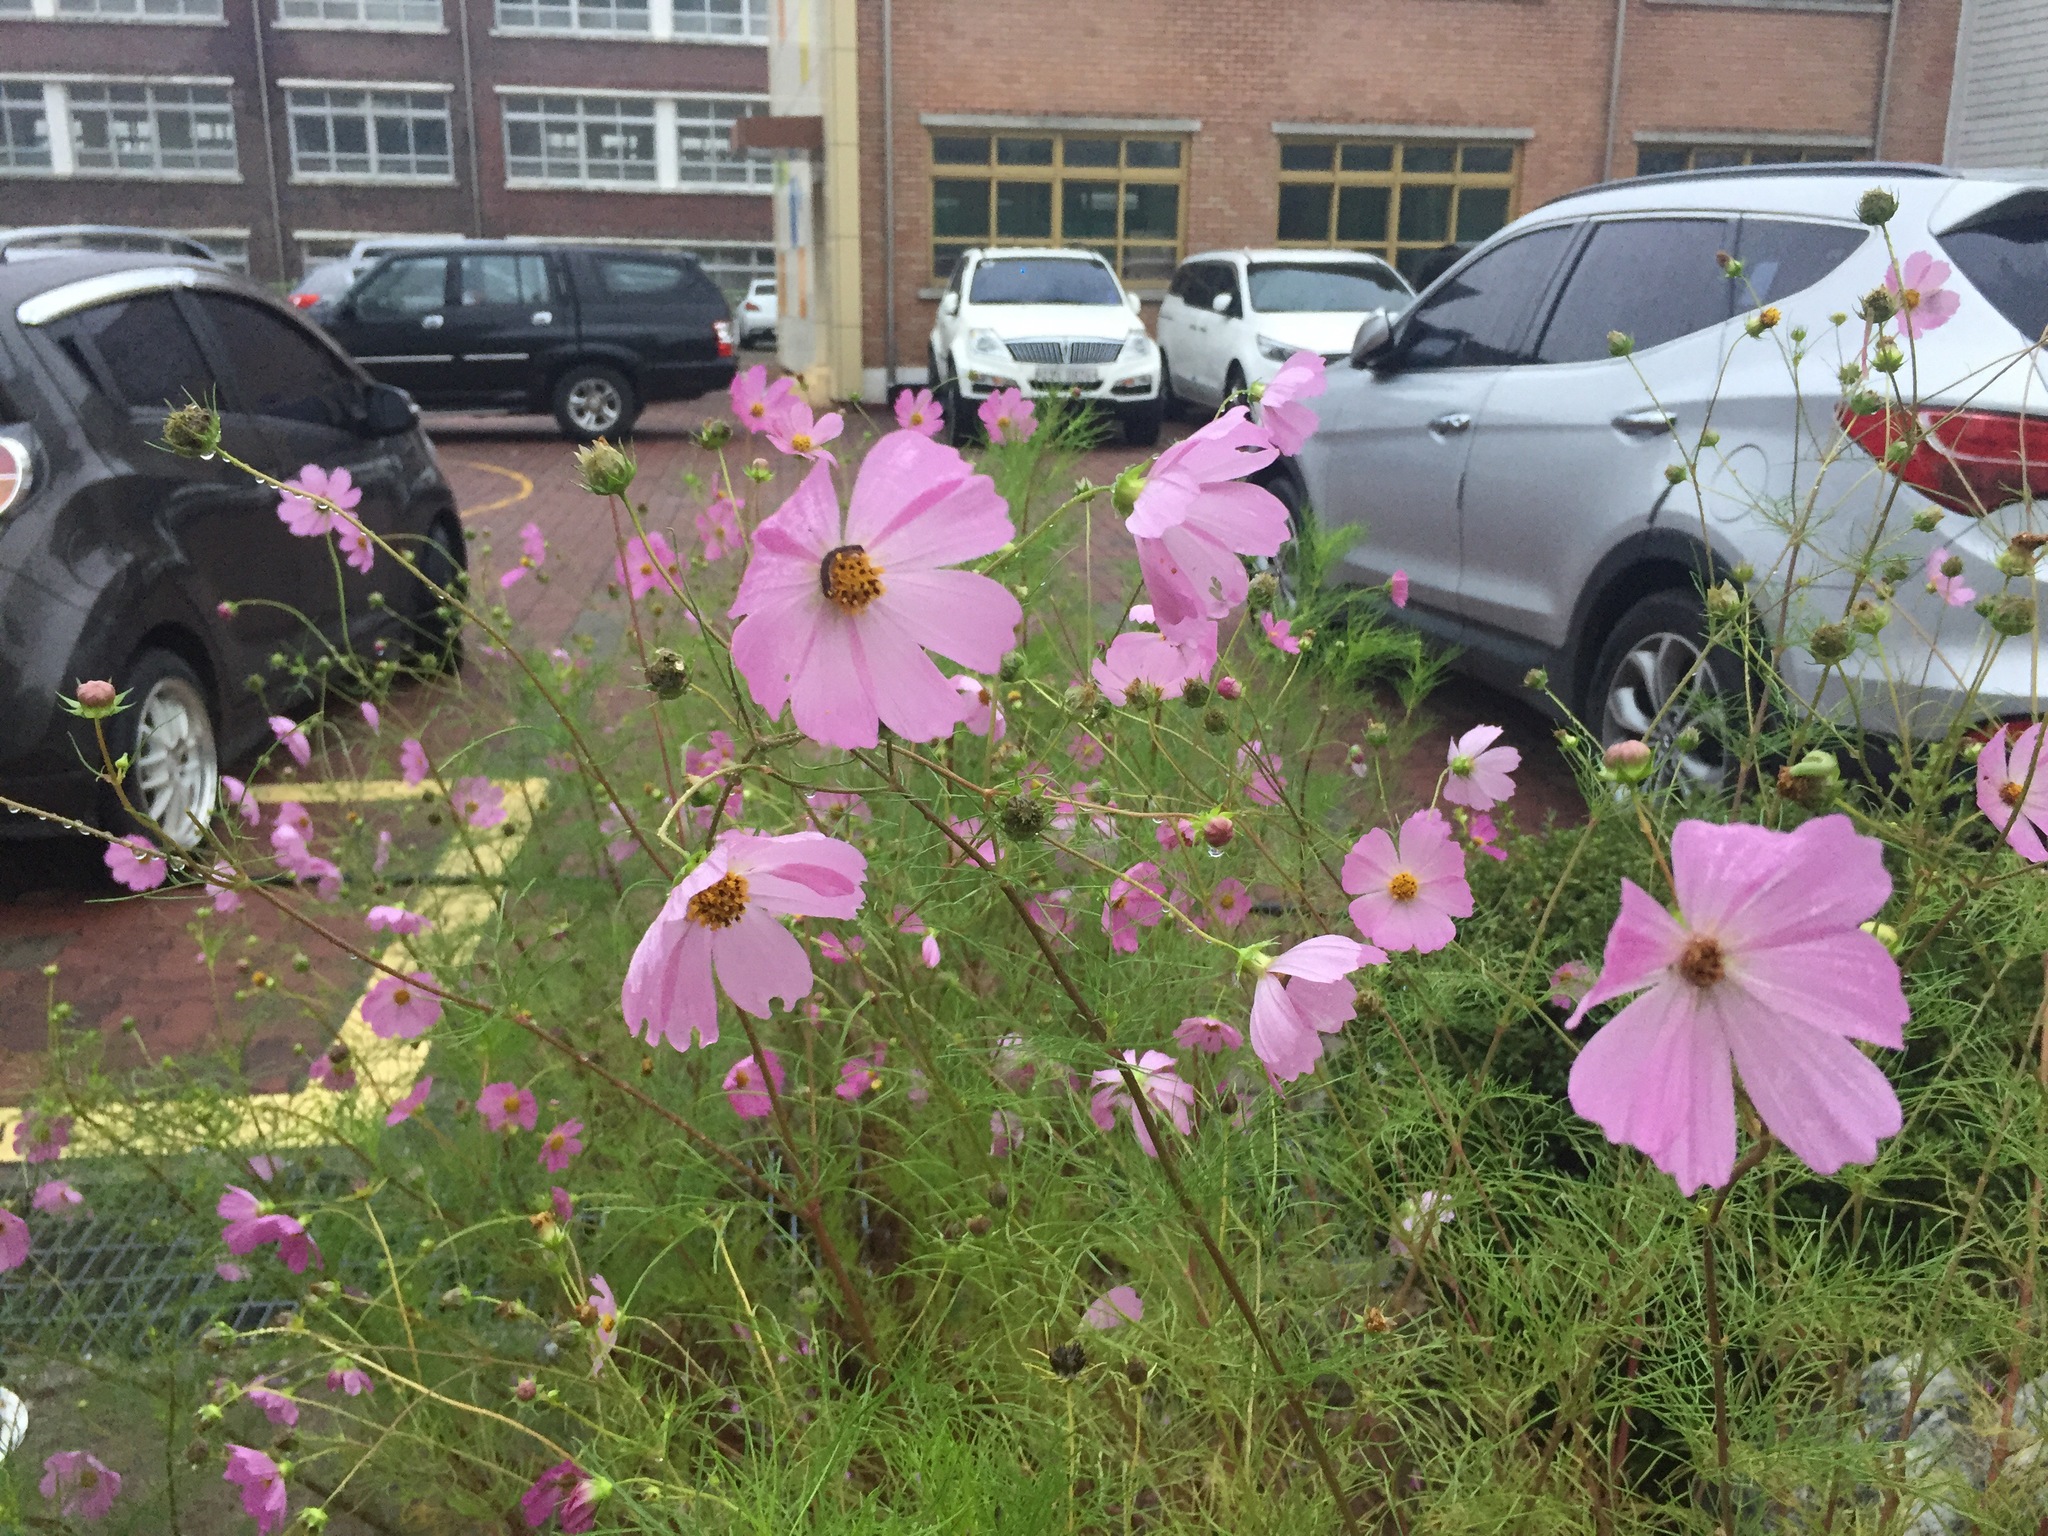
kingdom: Plantae
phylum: Tracheophyta
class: Magnoliopsida
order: Asterales
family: Asteraceae
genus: Cosmos
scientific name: Cosmos bipinnatus
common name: Garden cosmos
